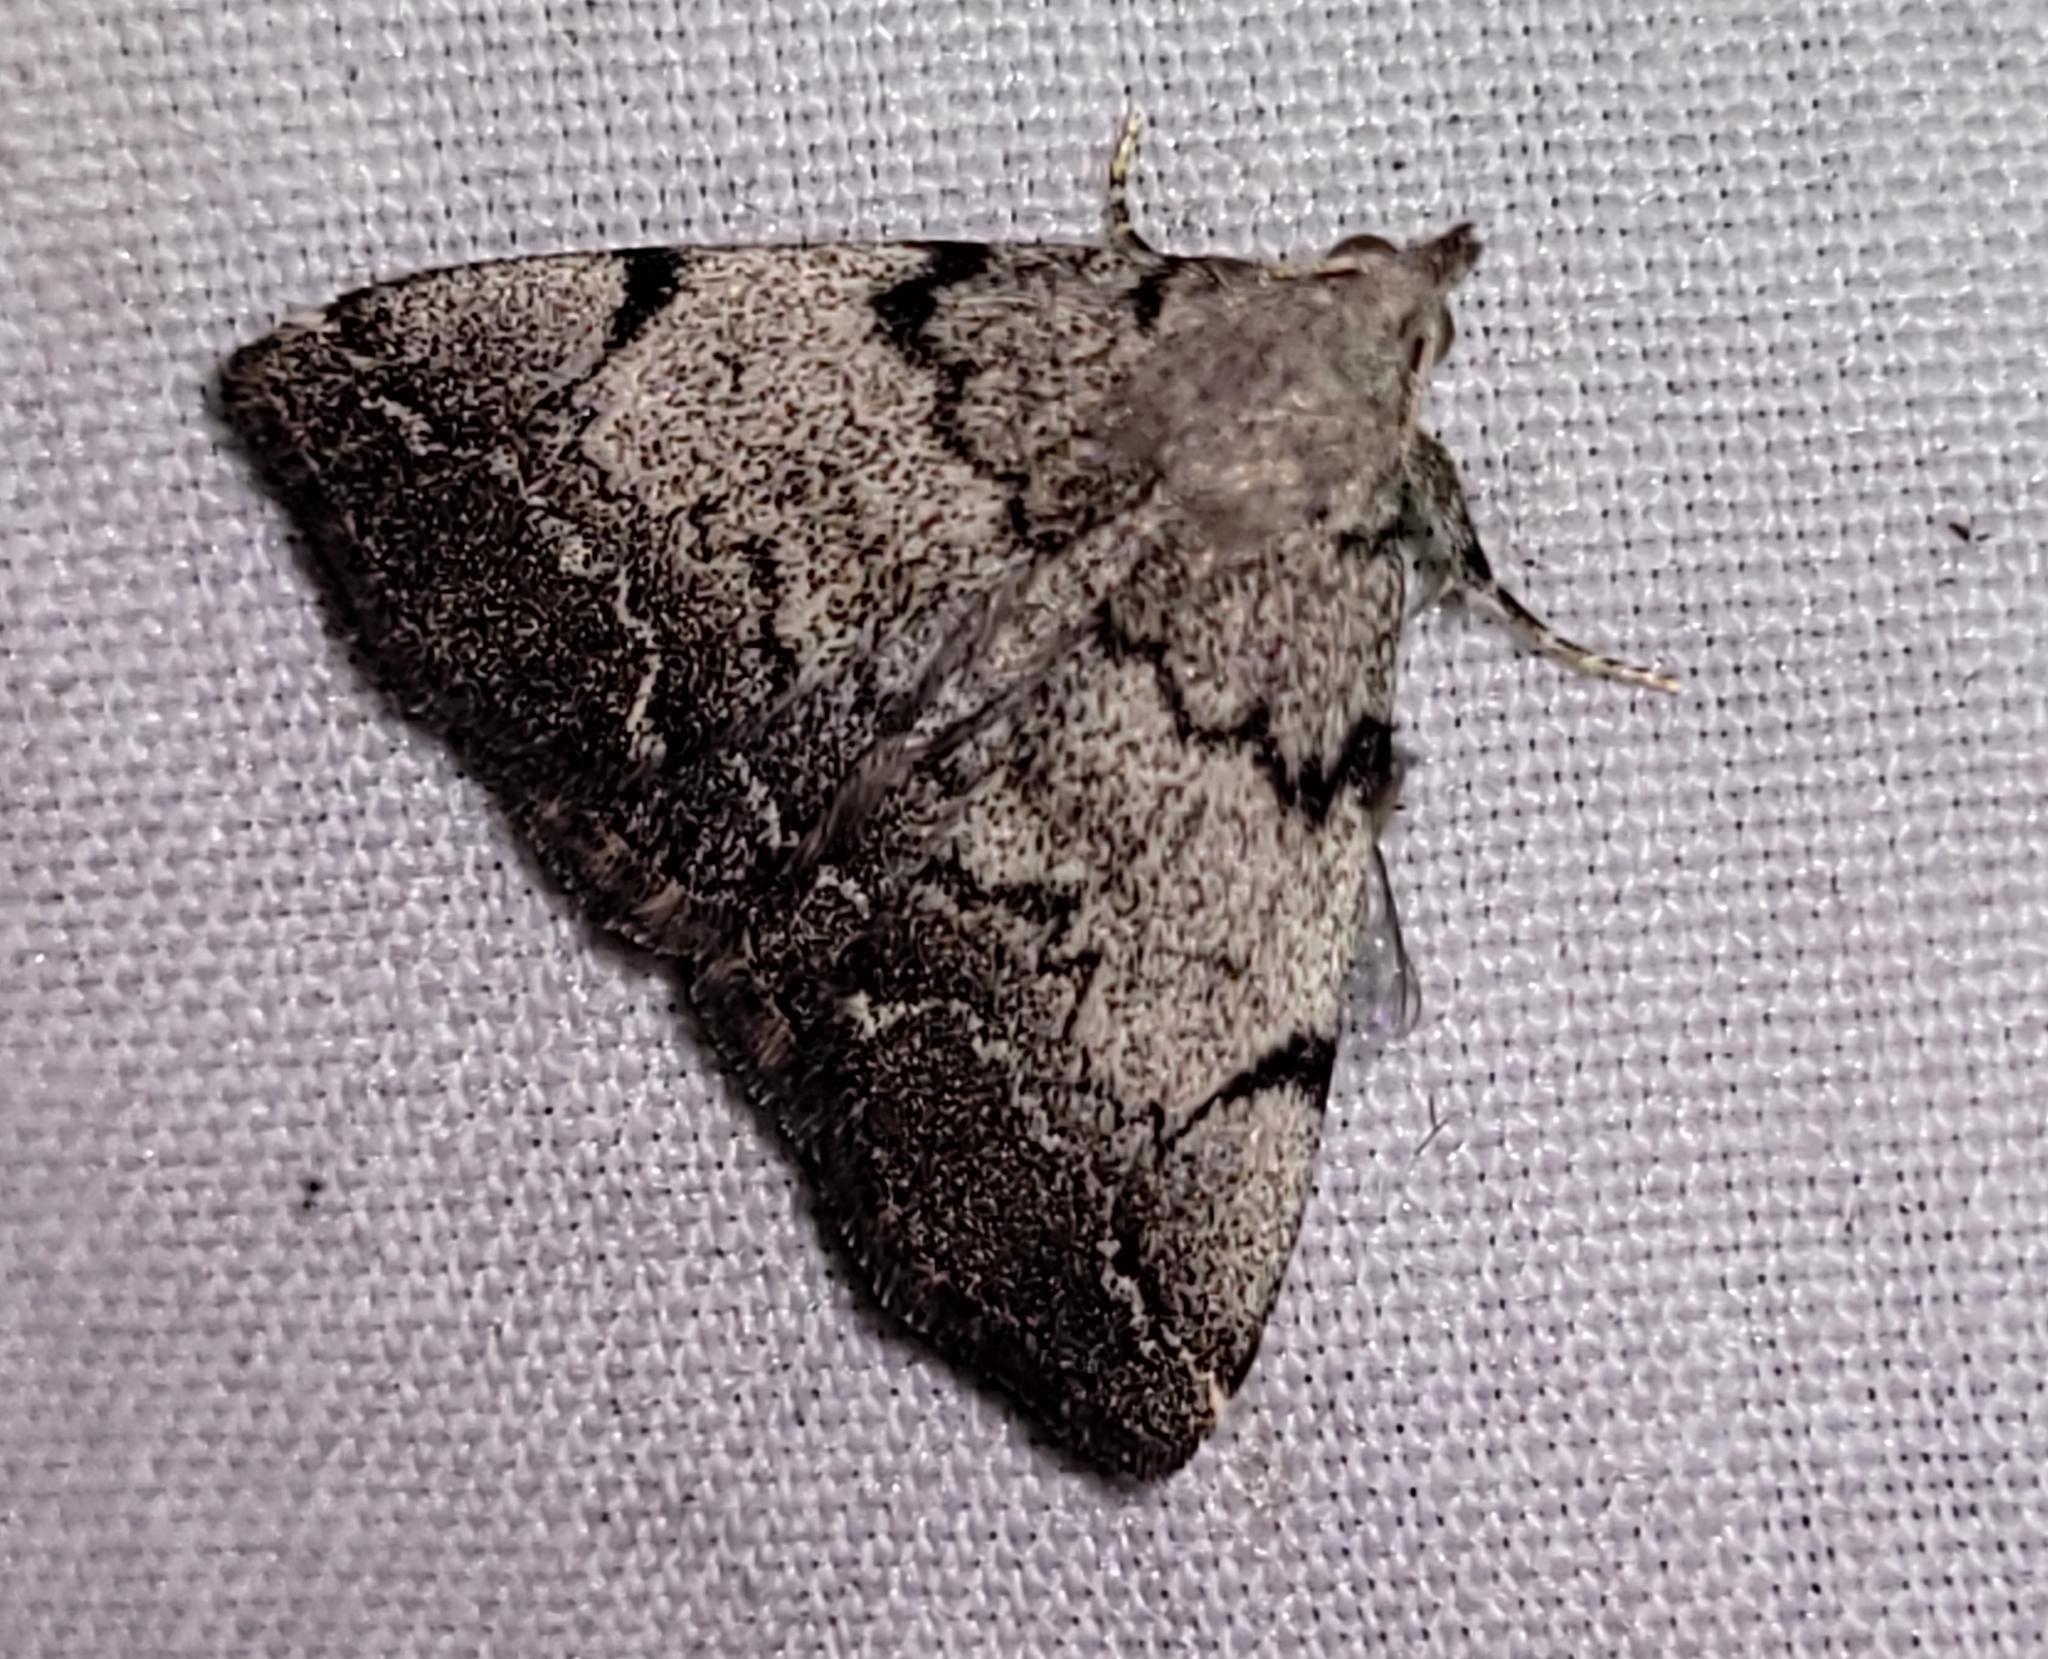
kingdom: Animalia
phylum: Arthropoda
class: Insecta
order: Lepidoptera
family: Erebidae
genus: Zanclognatha
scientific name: Zanclognatha theralis
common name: Flagged fan-foot
